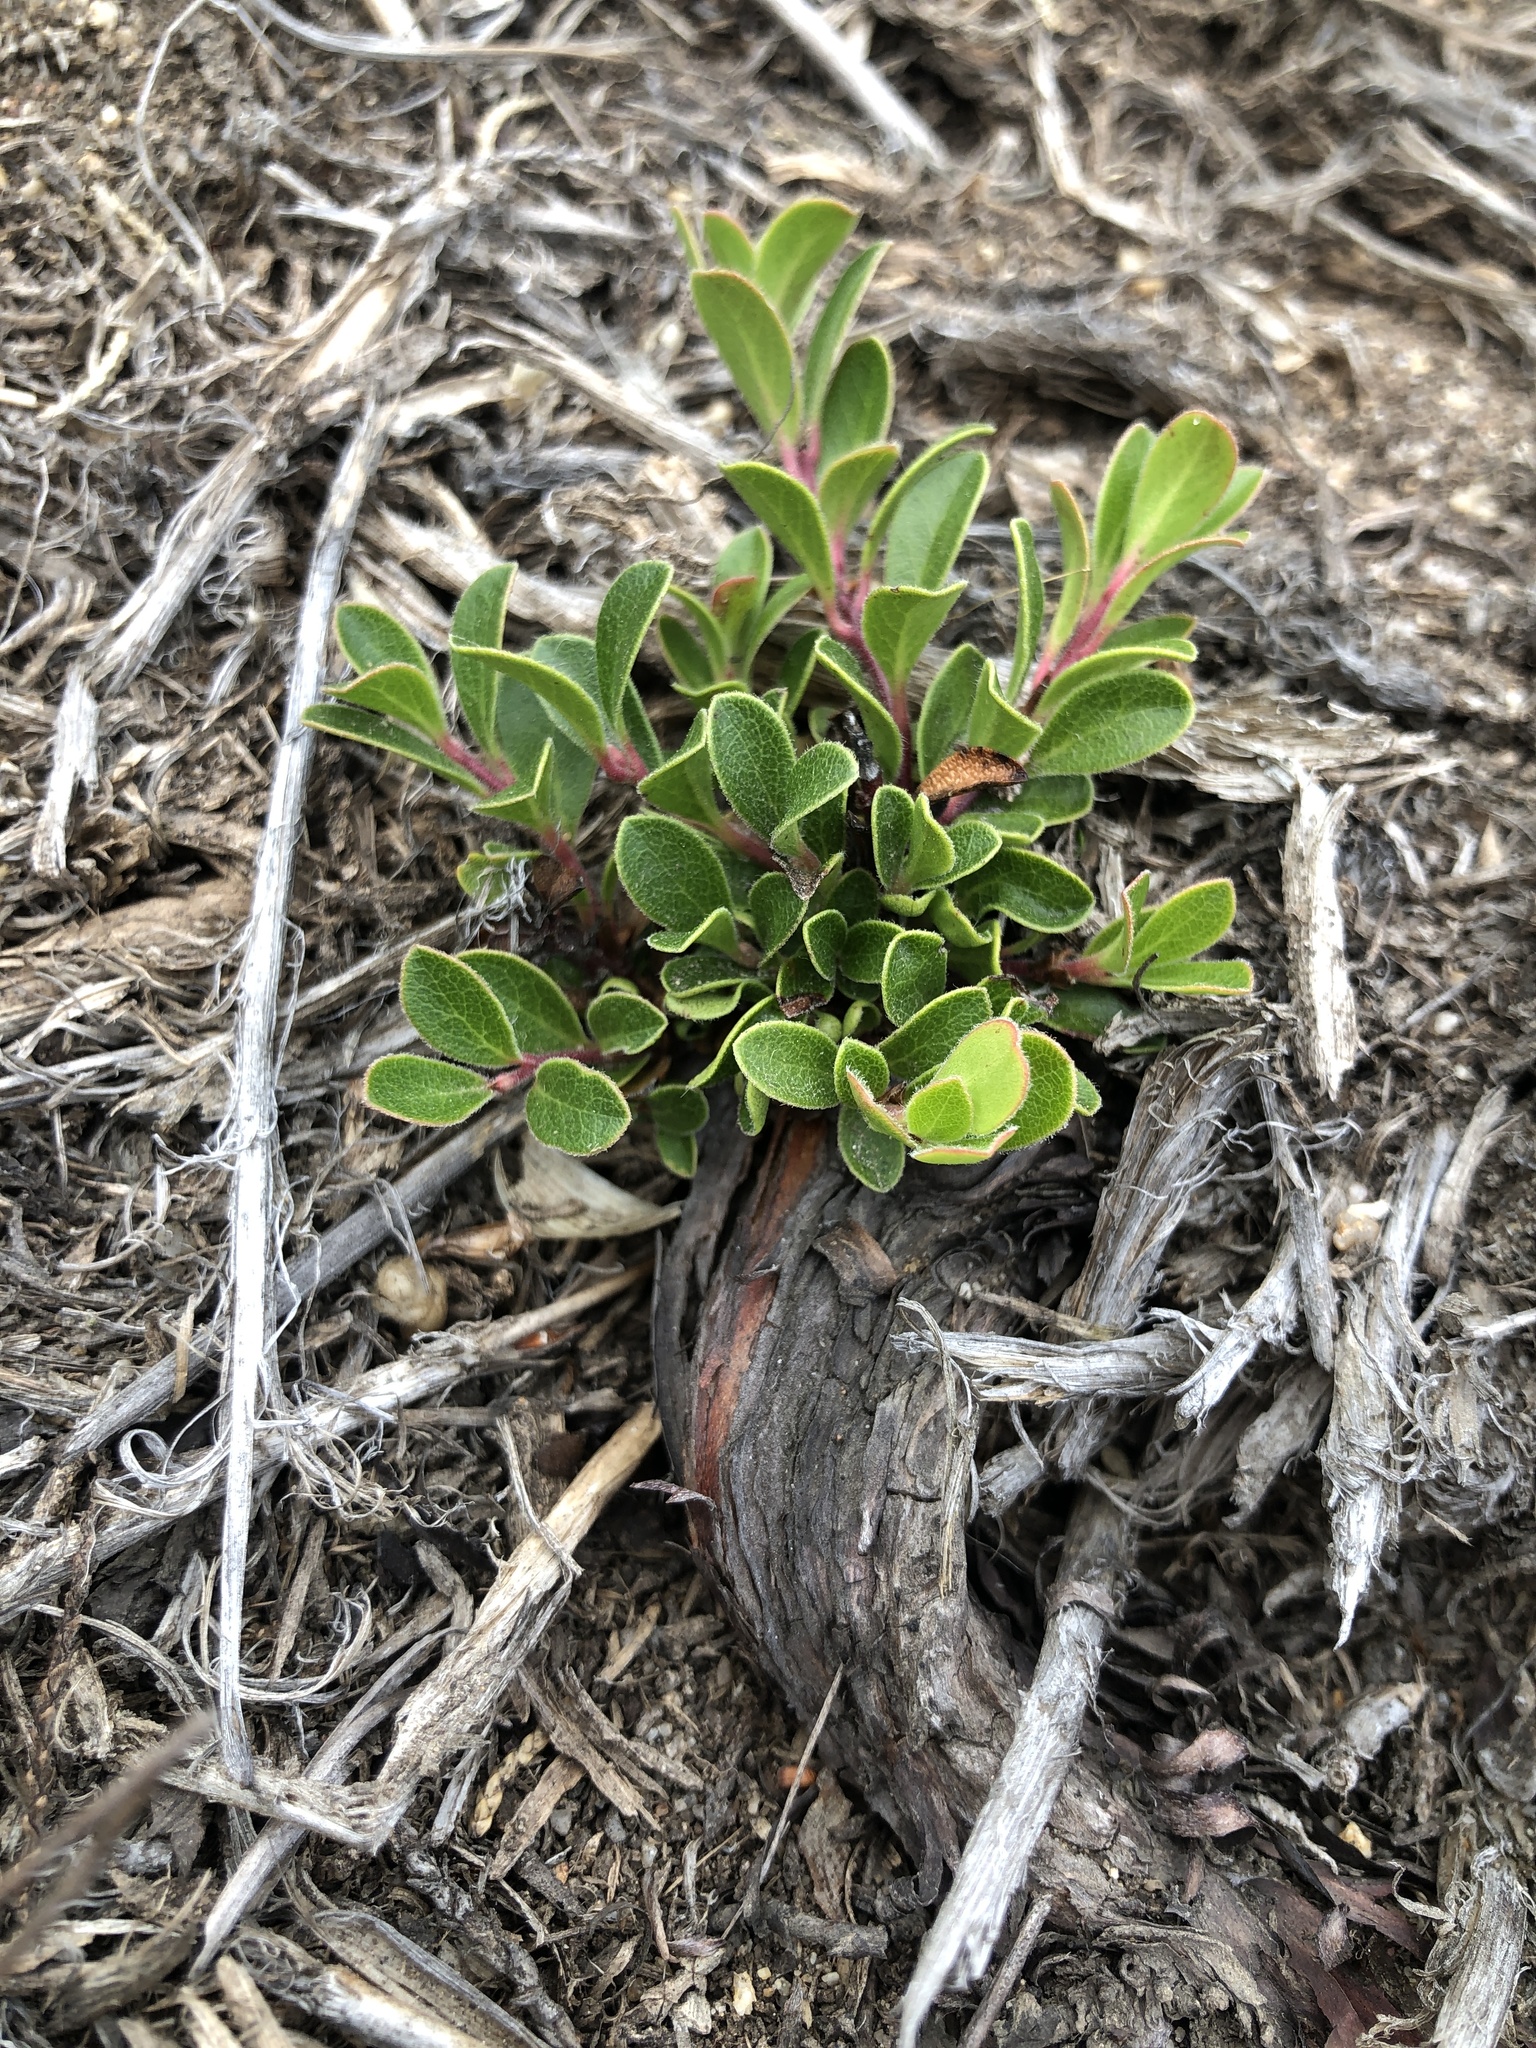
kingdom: Plantae
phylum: Tracheophyta
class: Magnoliopsida
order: Ericales
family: Ericaceae
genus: Arctostaphylos
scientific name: Arctostaphylos uva-ursi
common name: Bearberry
